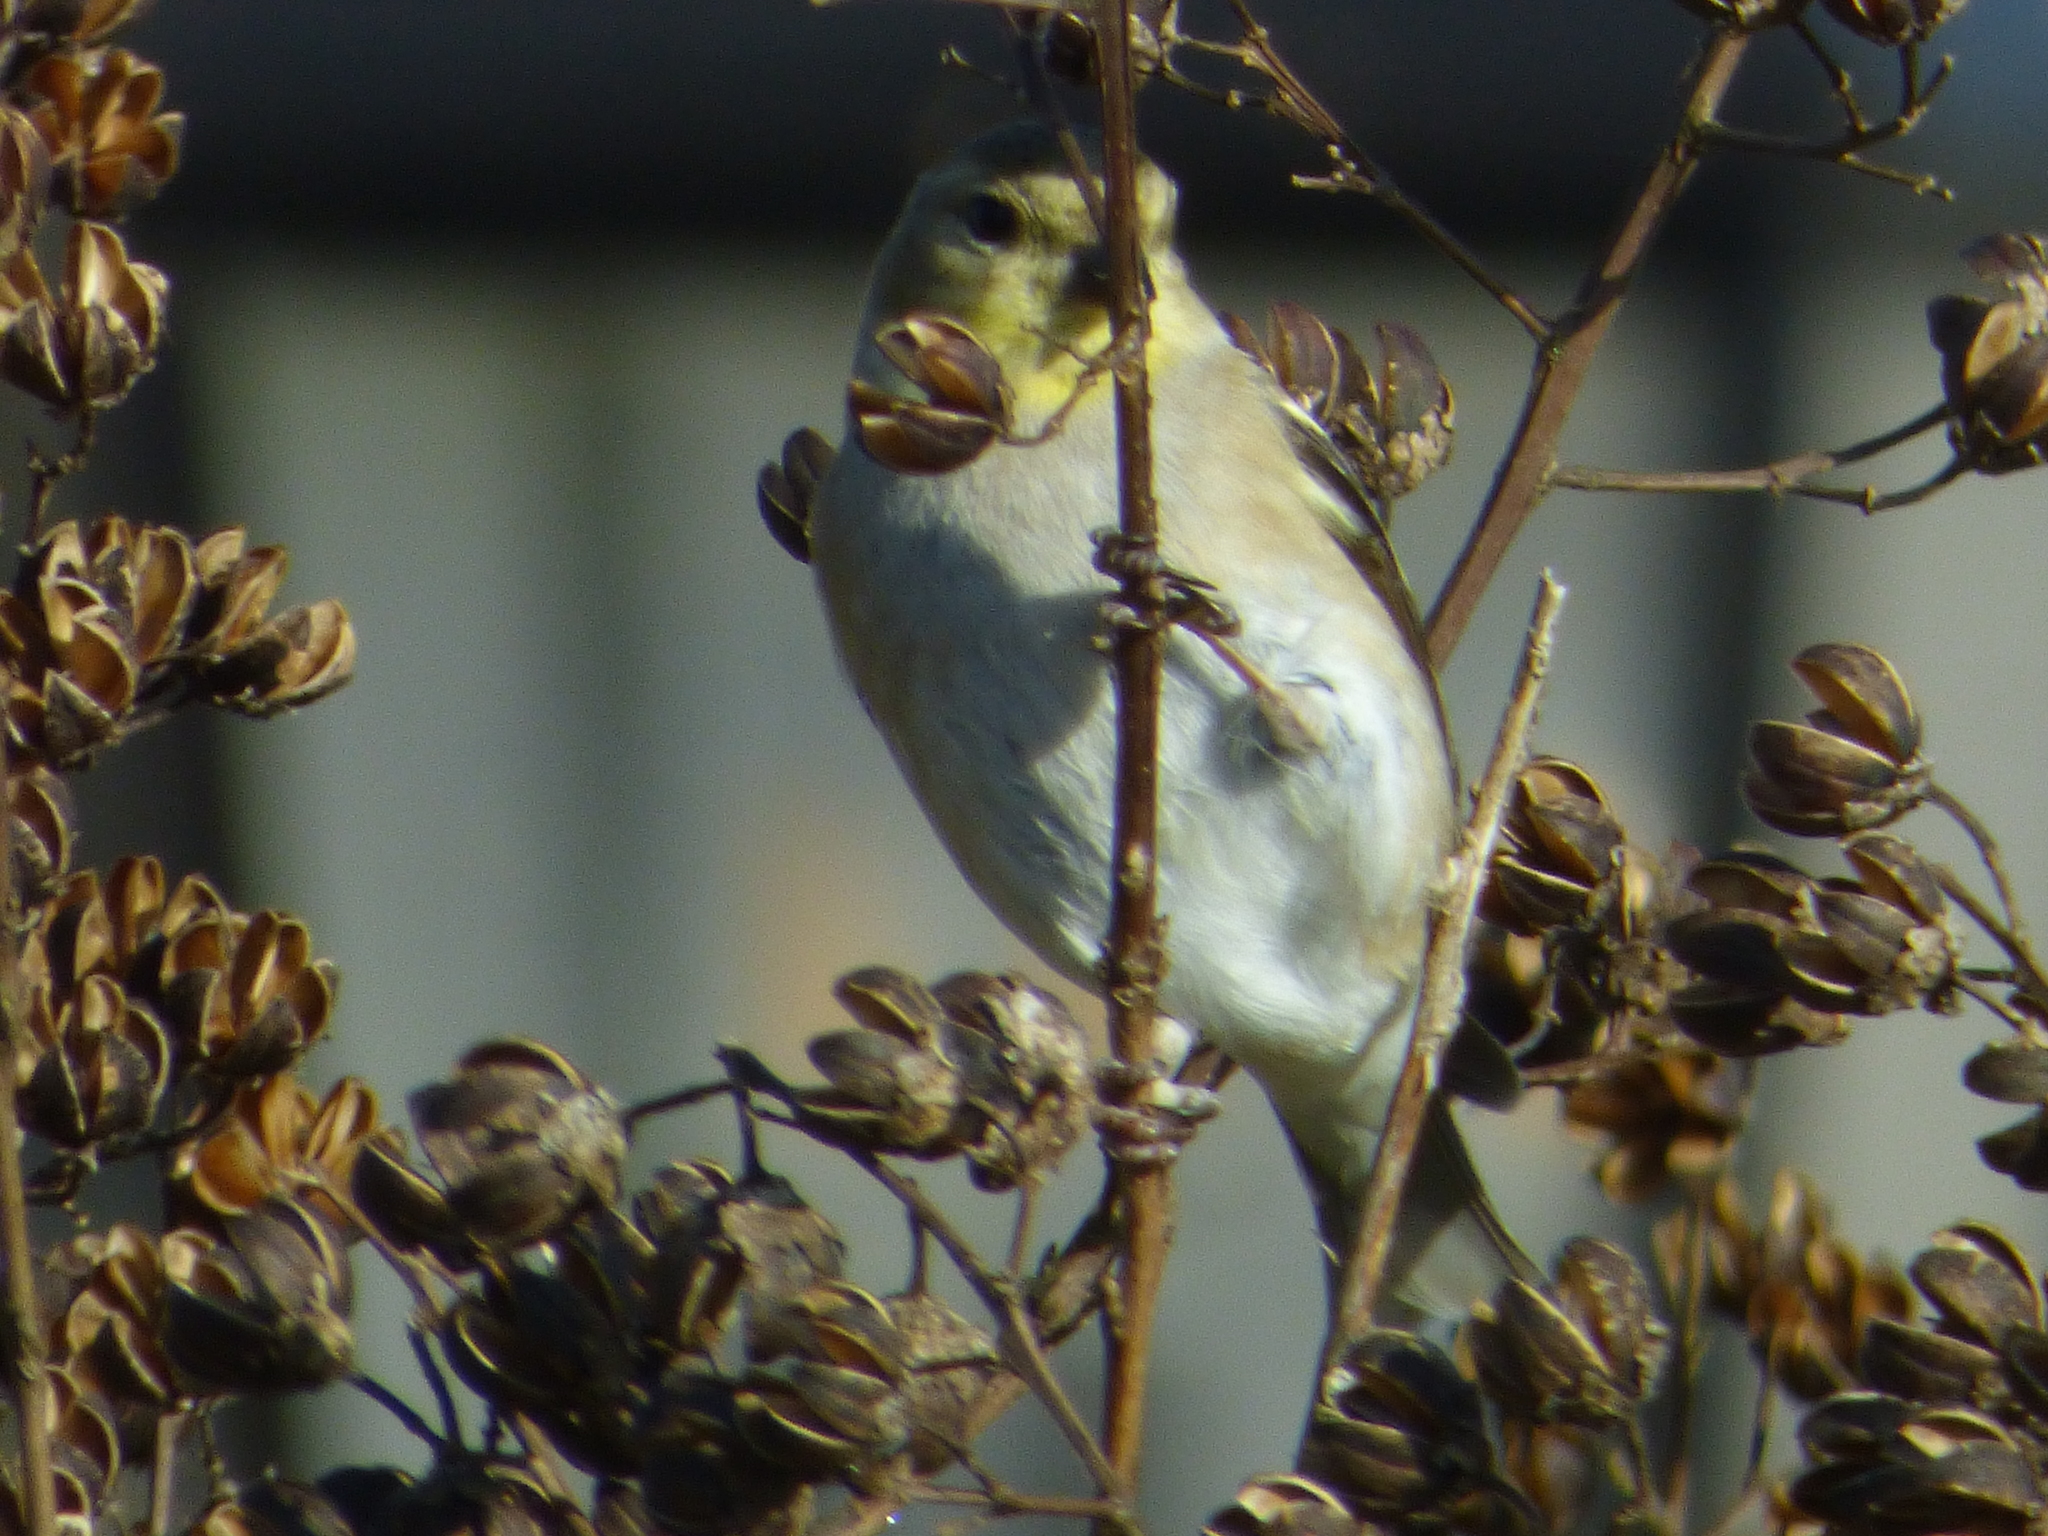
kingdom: Animalia
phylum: Chordata
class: Aves
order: Passeriformes
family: Fringillidae
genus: Spinus
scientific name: Spinus tristis
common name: American goldfinch
